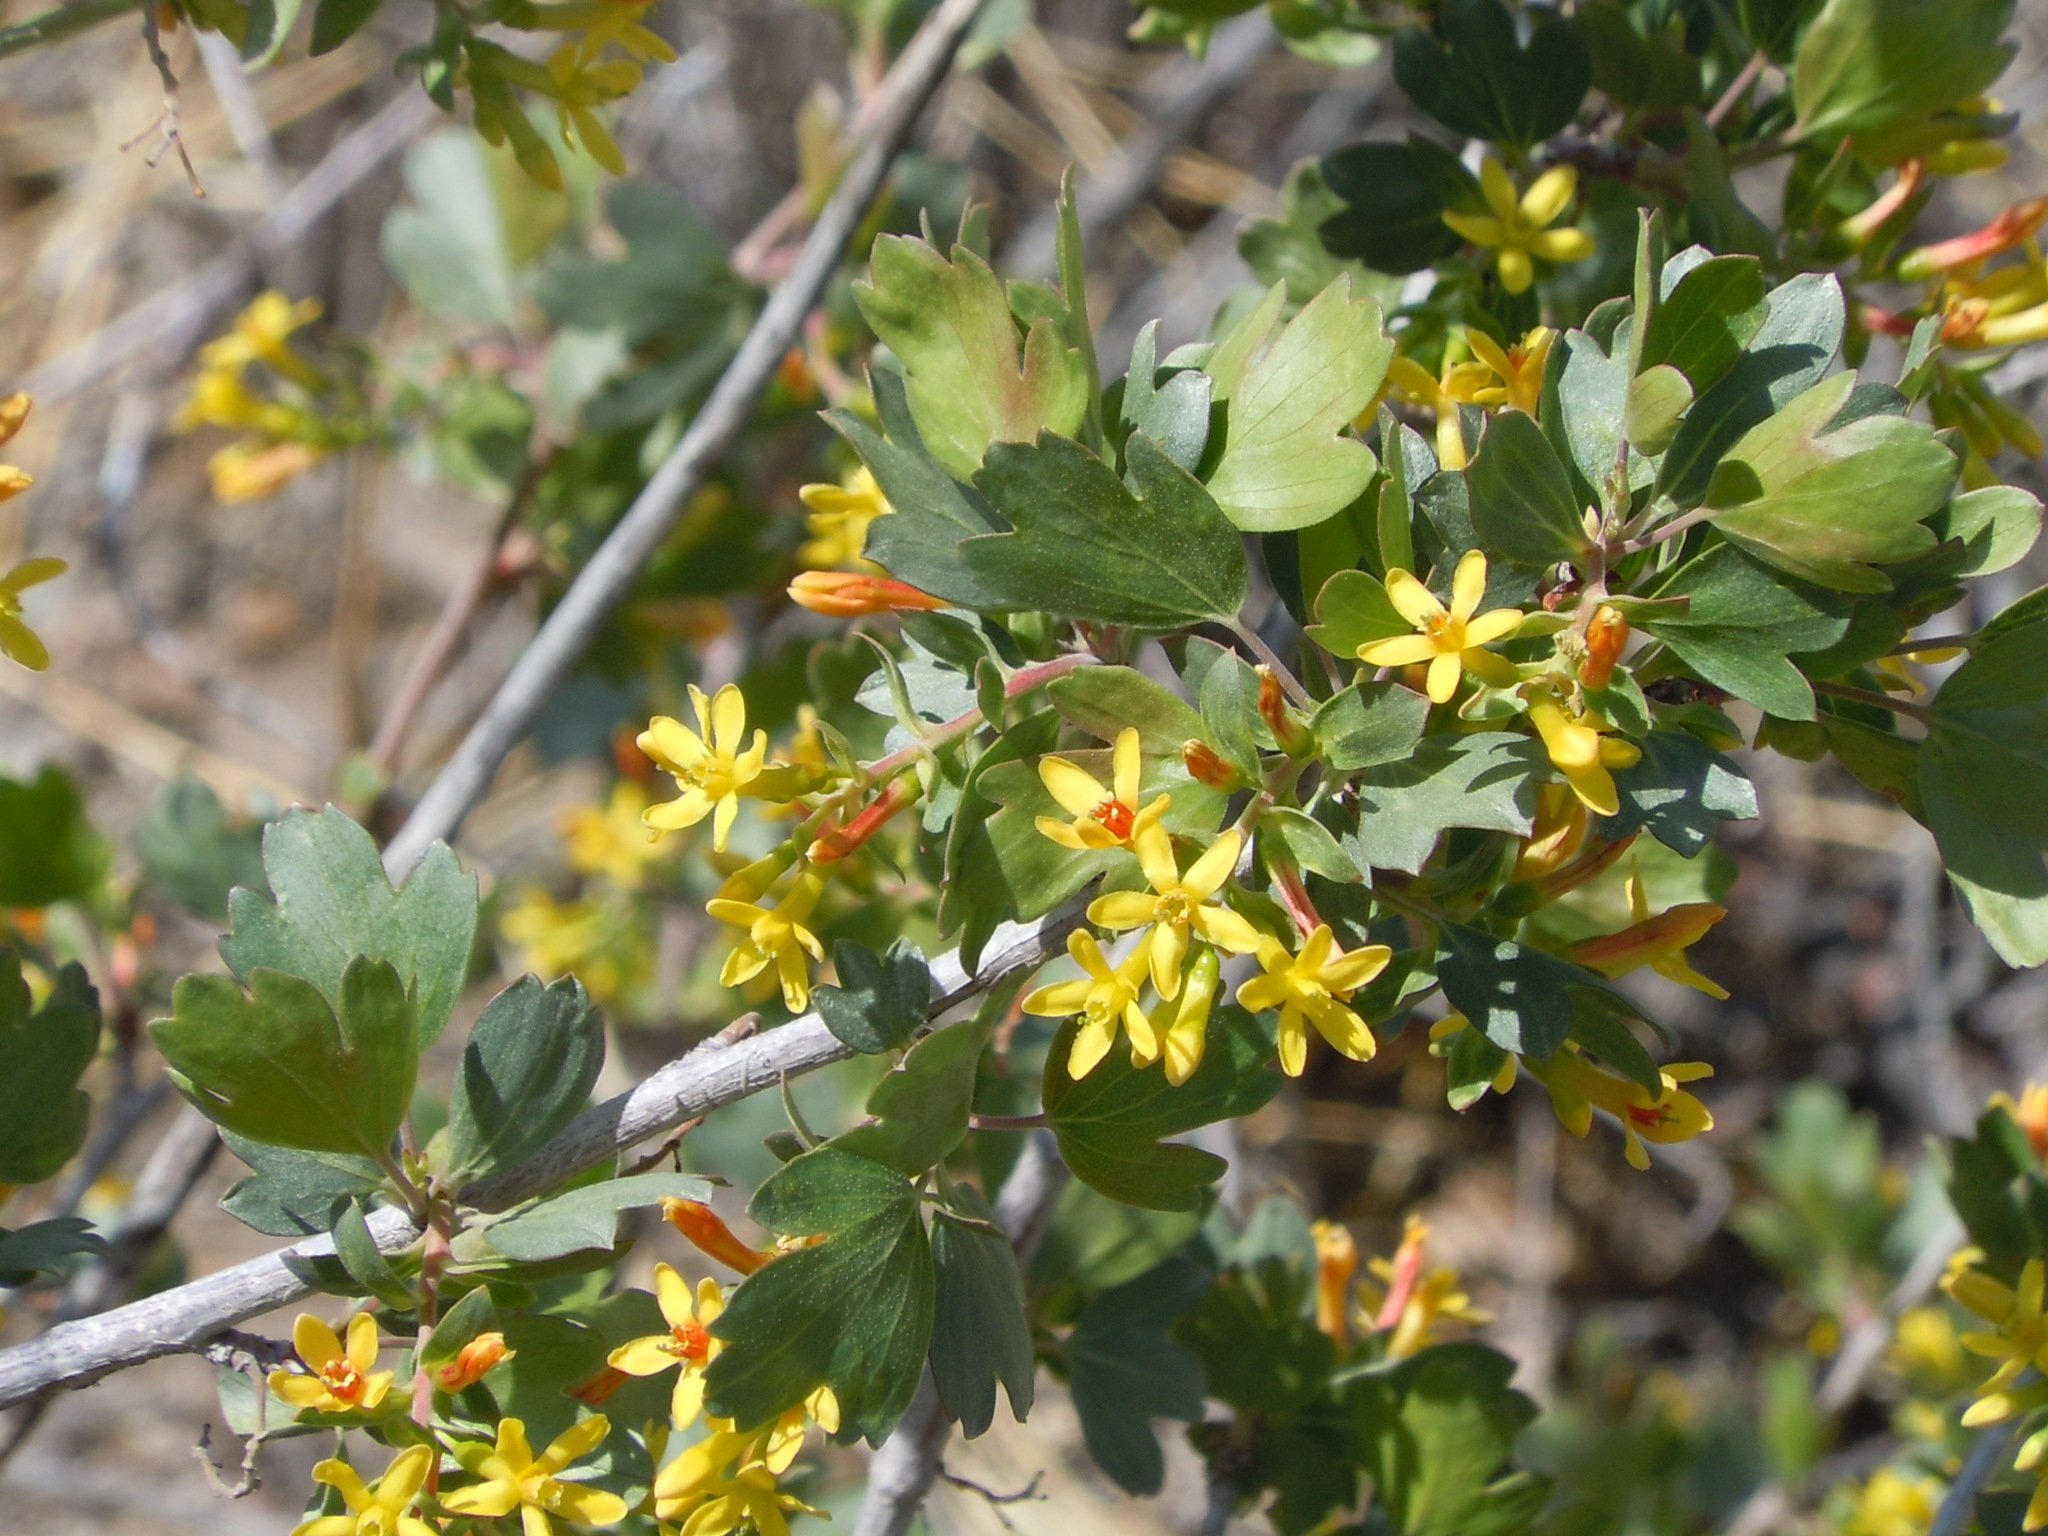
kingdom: Plantae
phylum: Tracheophyta
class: Magnoliopsida
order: Saxifragales
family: Grossulariaceae
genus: Ribes
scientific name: Ribes aureum
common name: Golden currant
